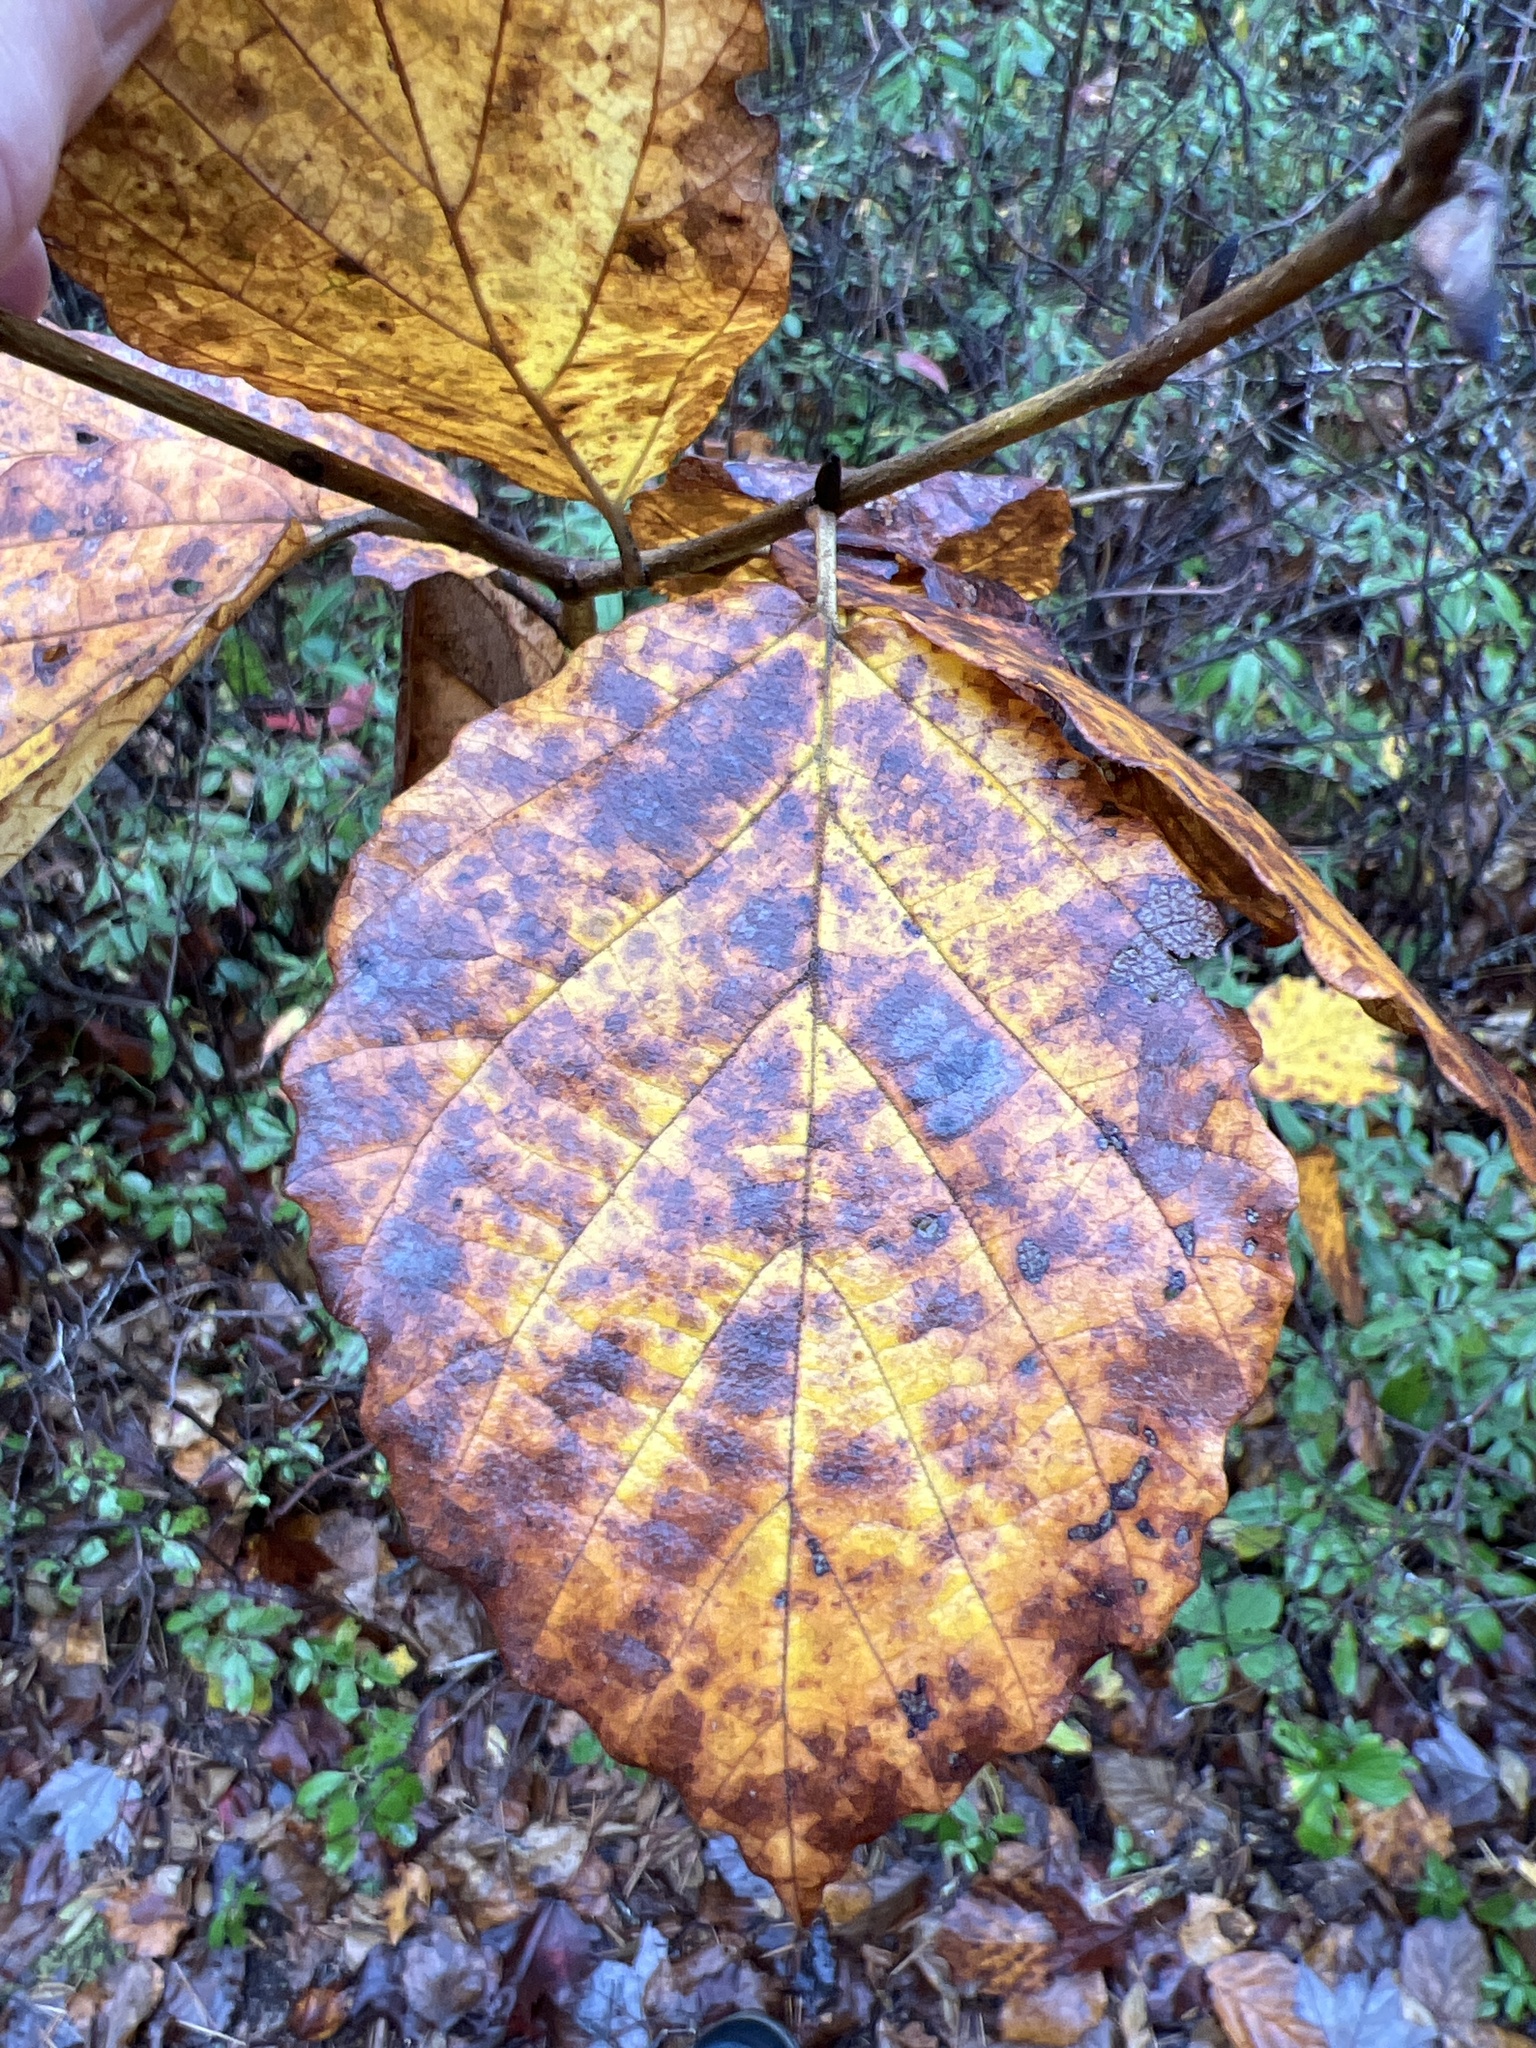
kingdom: Plantae
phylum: Tracheophyta
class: Magnoliopsida
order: Saxifragales
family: Hamamelidaceae
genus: Hamamelis
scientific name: Hamamelis virginiana
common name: Witch-hazel
